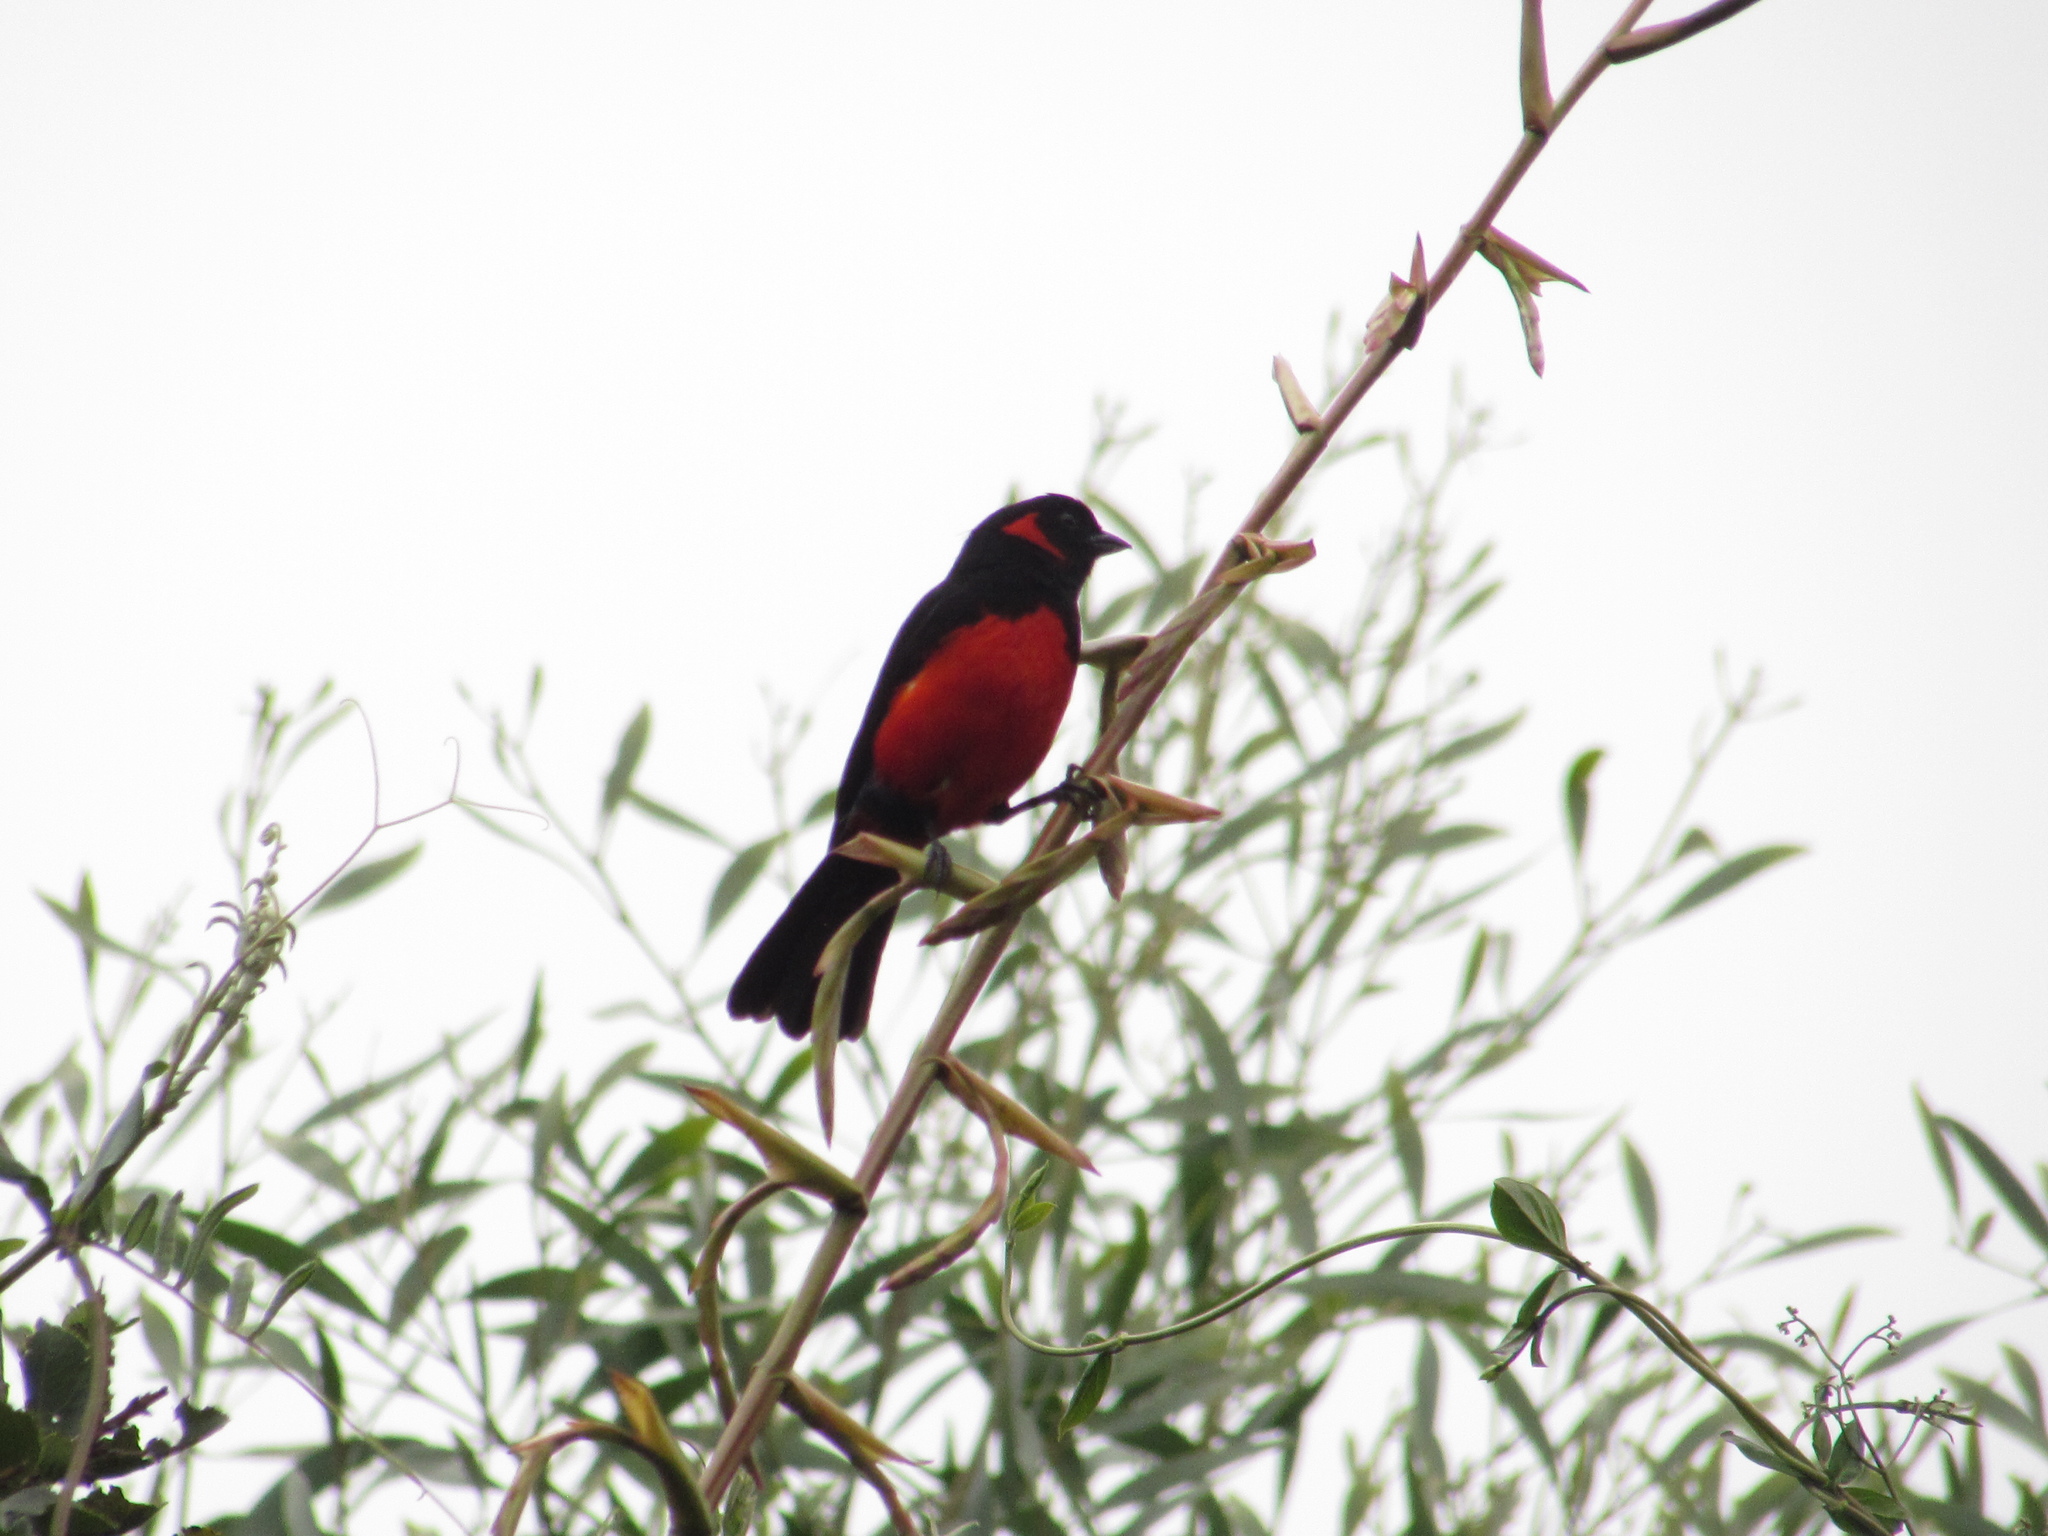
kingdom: Animalia
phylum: Chordata
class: Aves
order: Passeriformes
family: Thraupidae
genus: Anisognathus
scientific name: Anisognathus igniventris
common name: Scarlet-bellied mountain tanager
